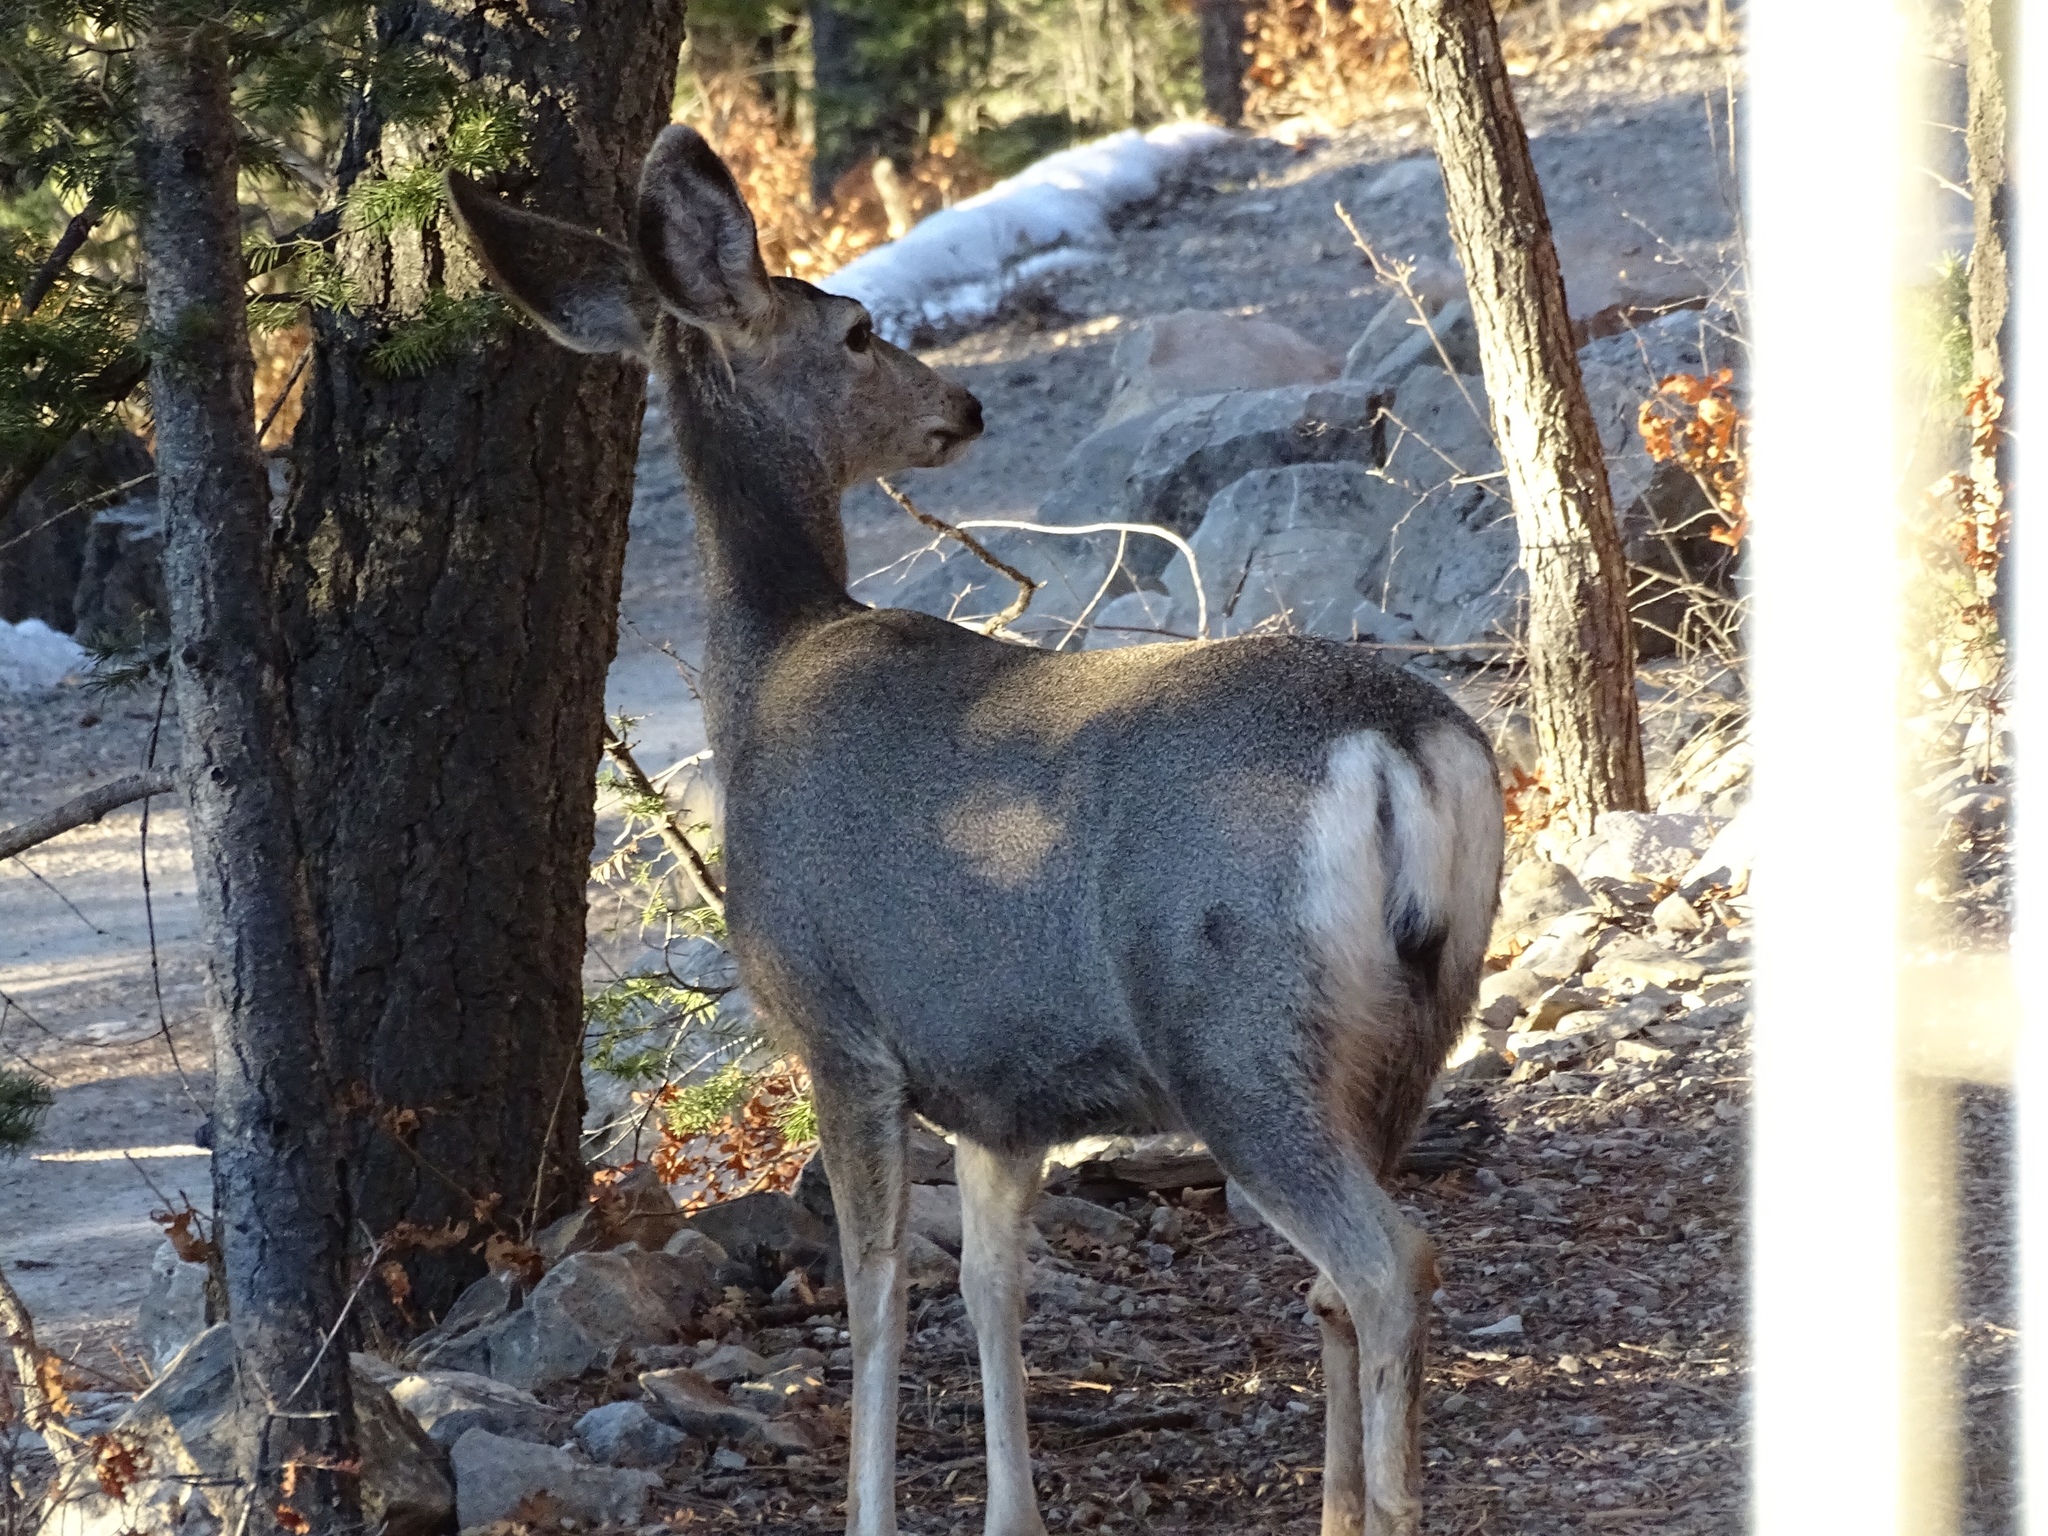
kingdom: Animalia
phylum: Chordata
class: Mammalia
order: Artiodactyla
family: Cervidae
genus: Odocoileus
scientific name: Odocoileus hemionus
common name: Mule deer
